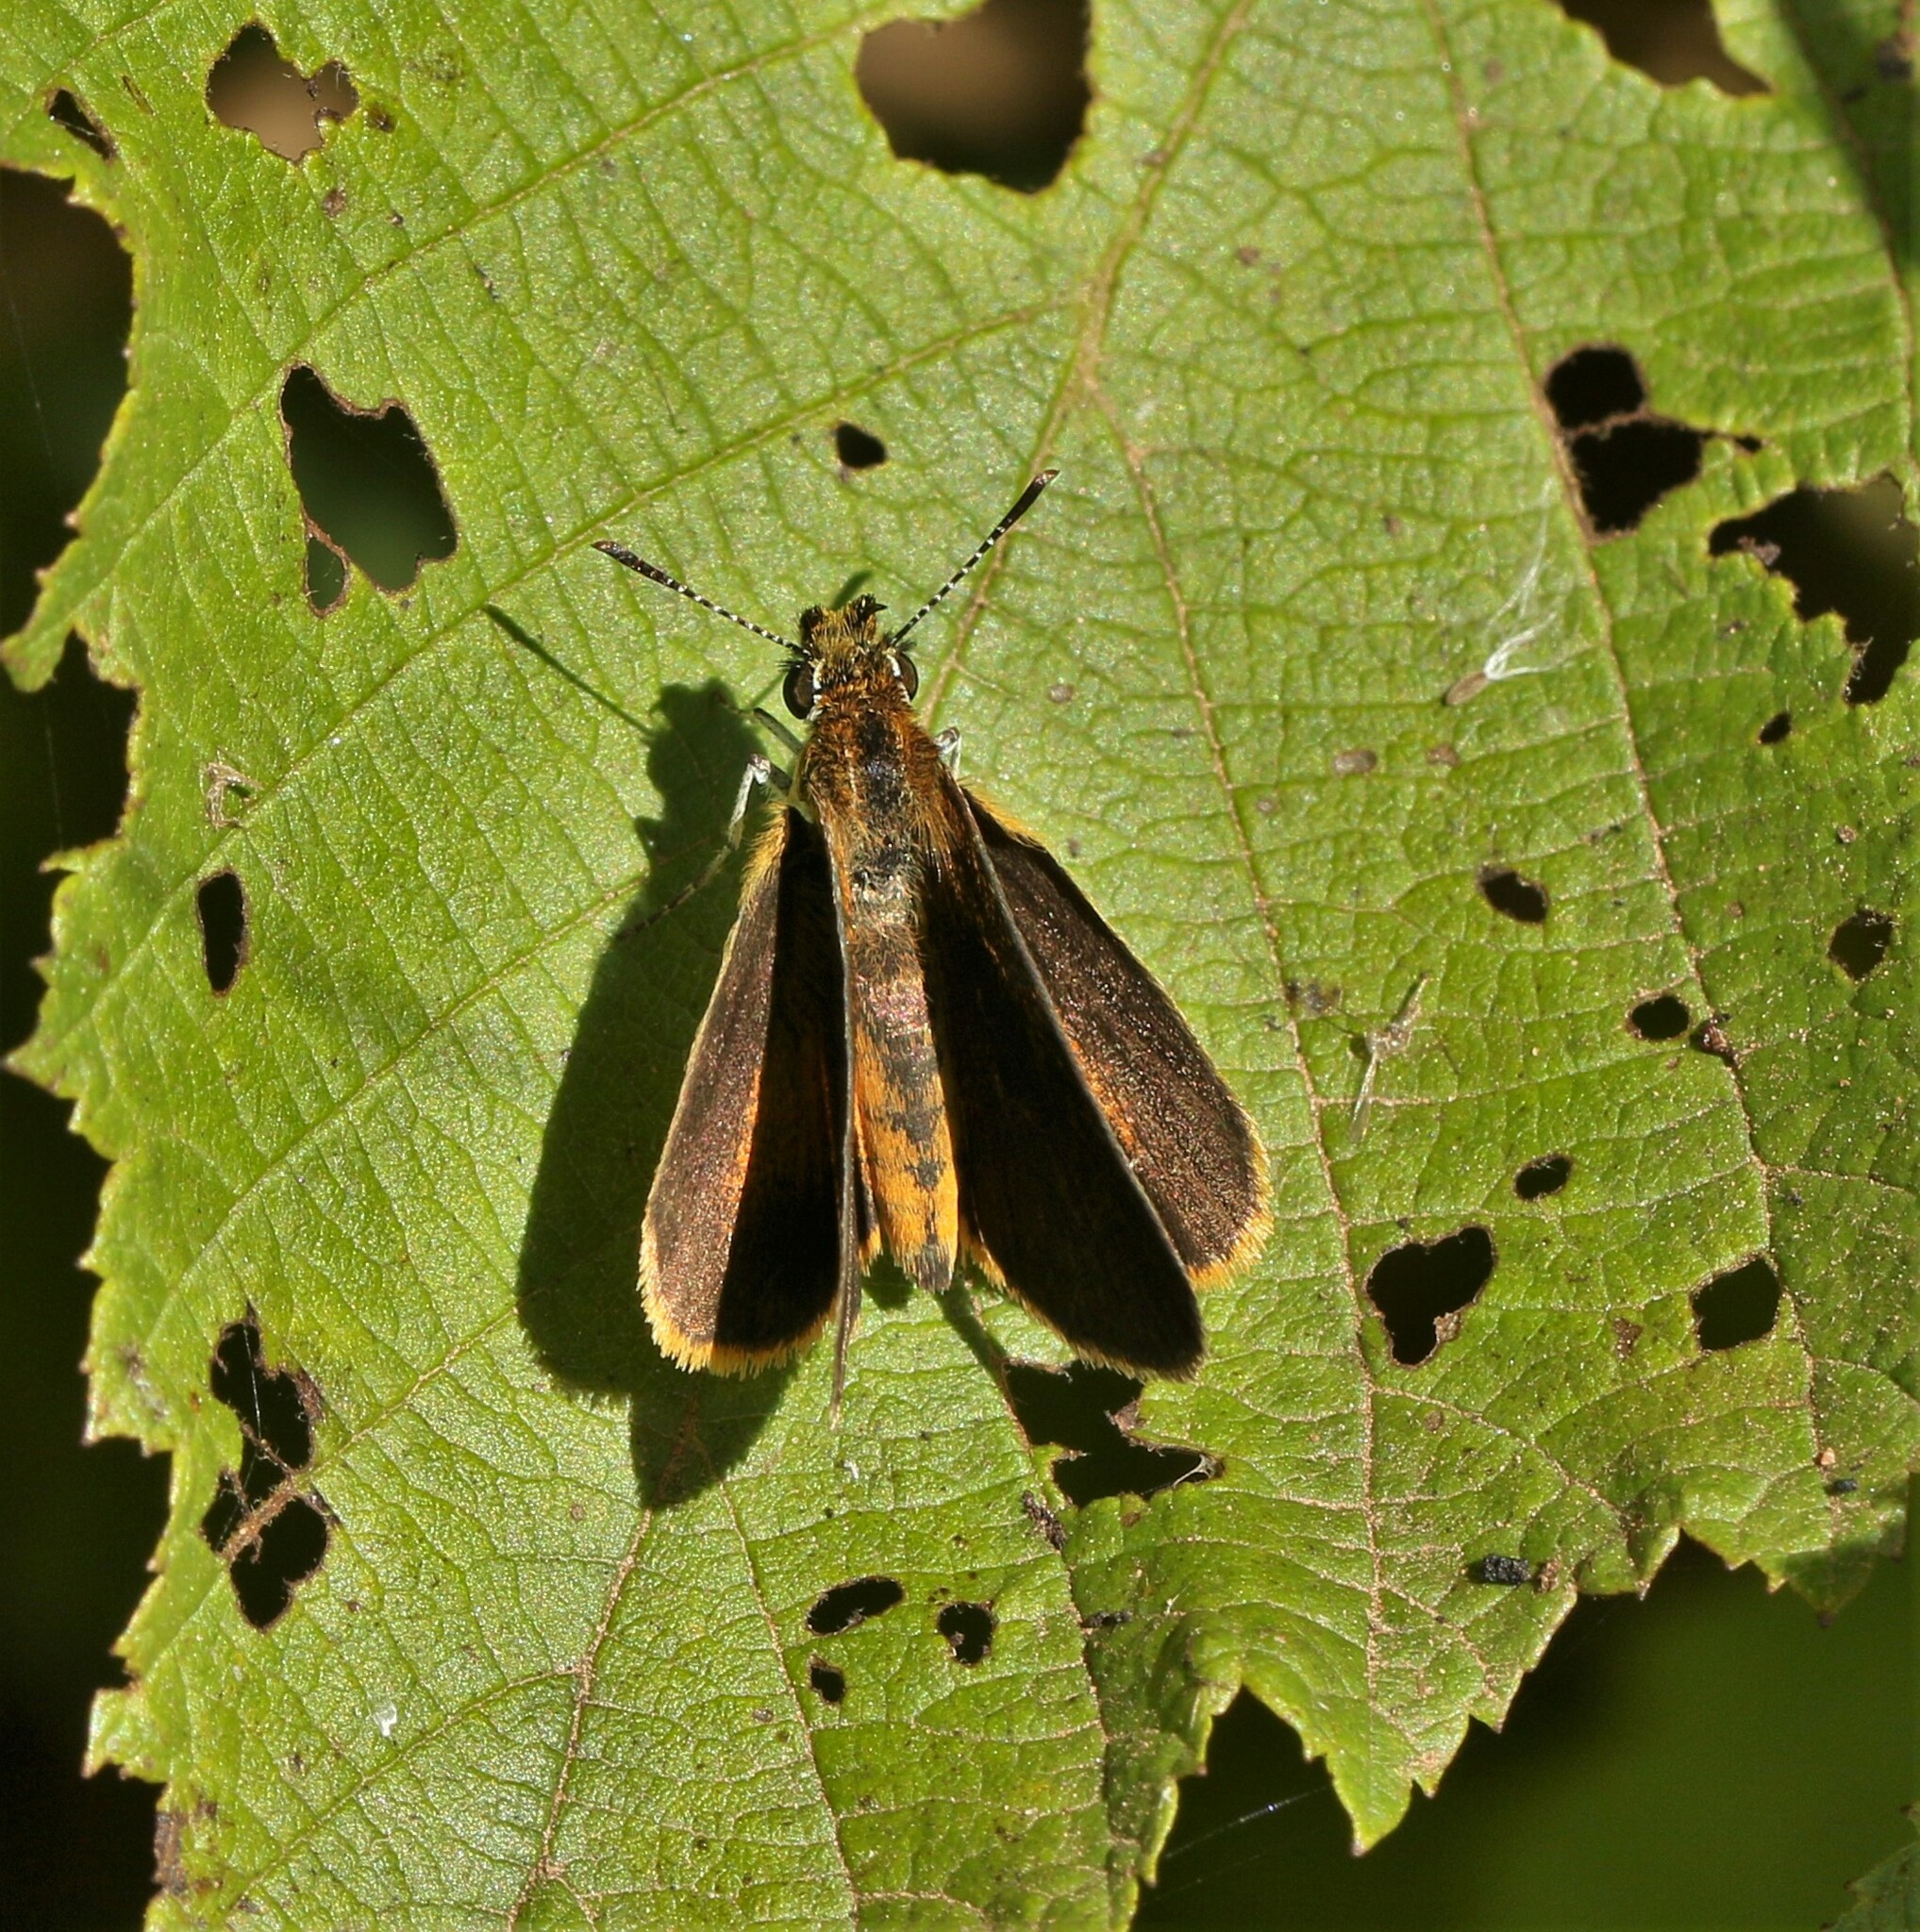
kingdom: Animalia
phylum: Arthropoda
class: Insecta
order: Lepidoptera
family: Hesperiidae
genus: Ancyloxypha
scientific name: Ancyloxypha numitor
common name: Least skipper
